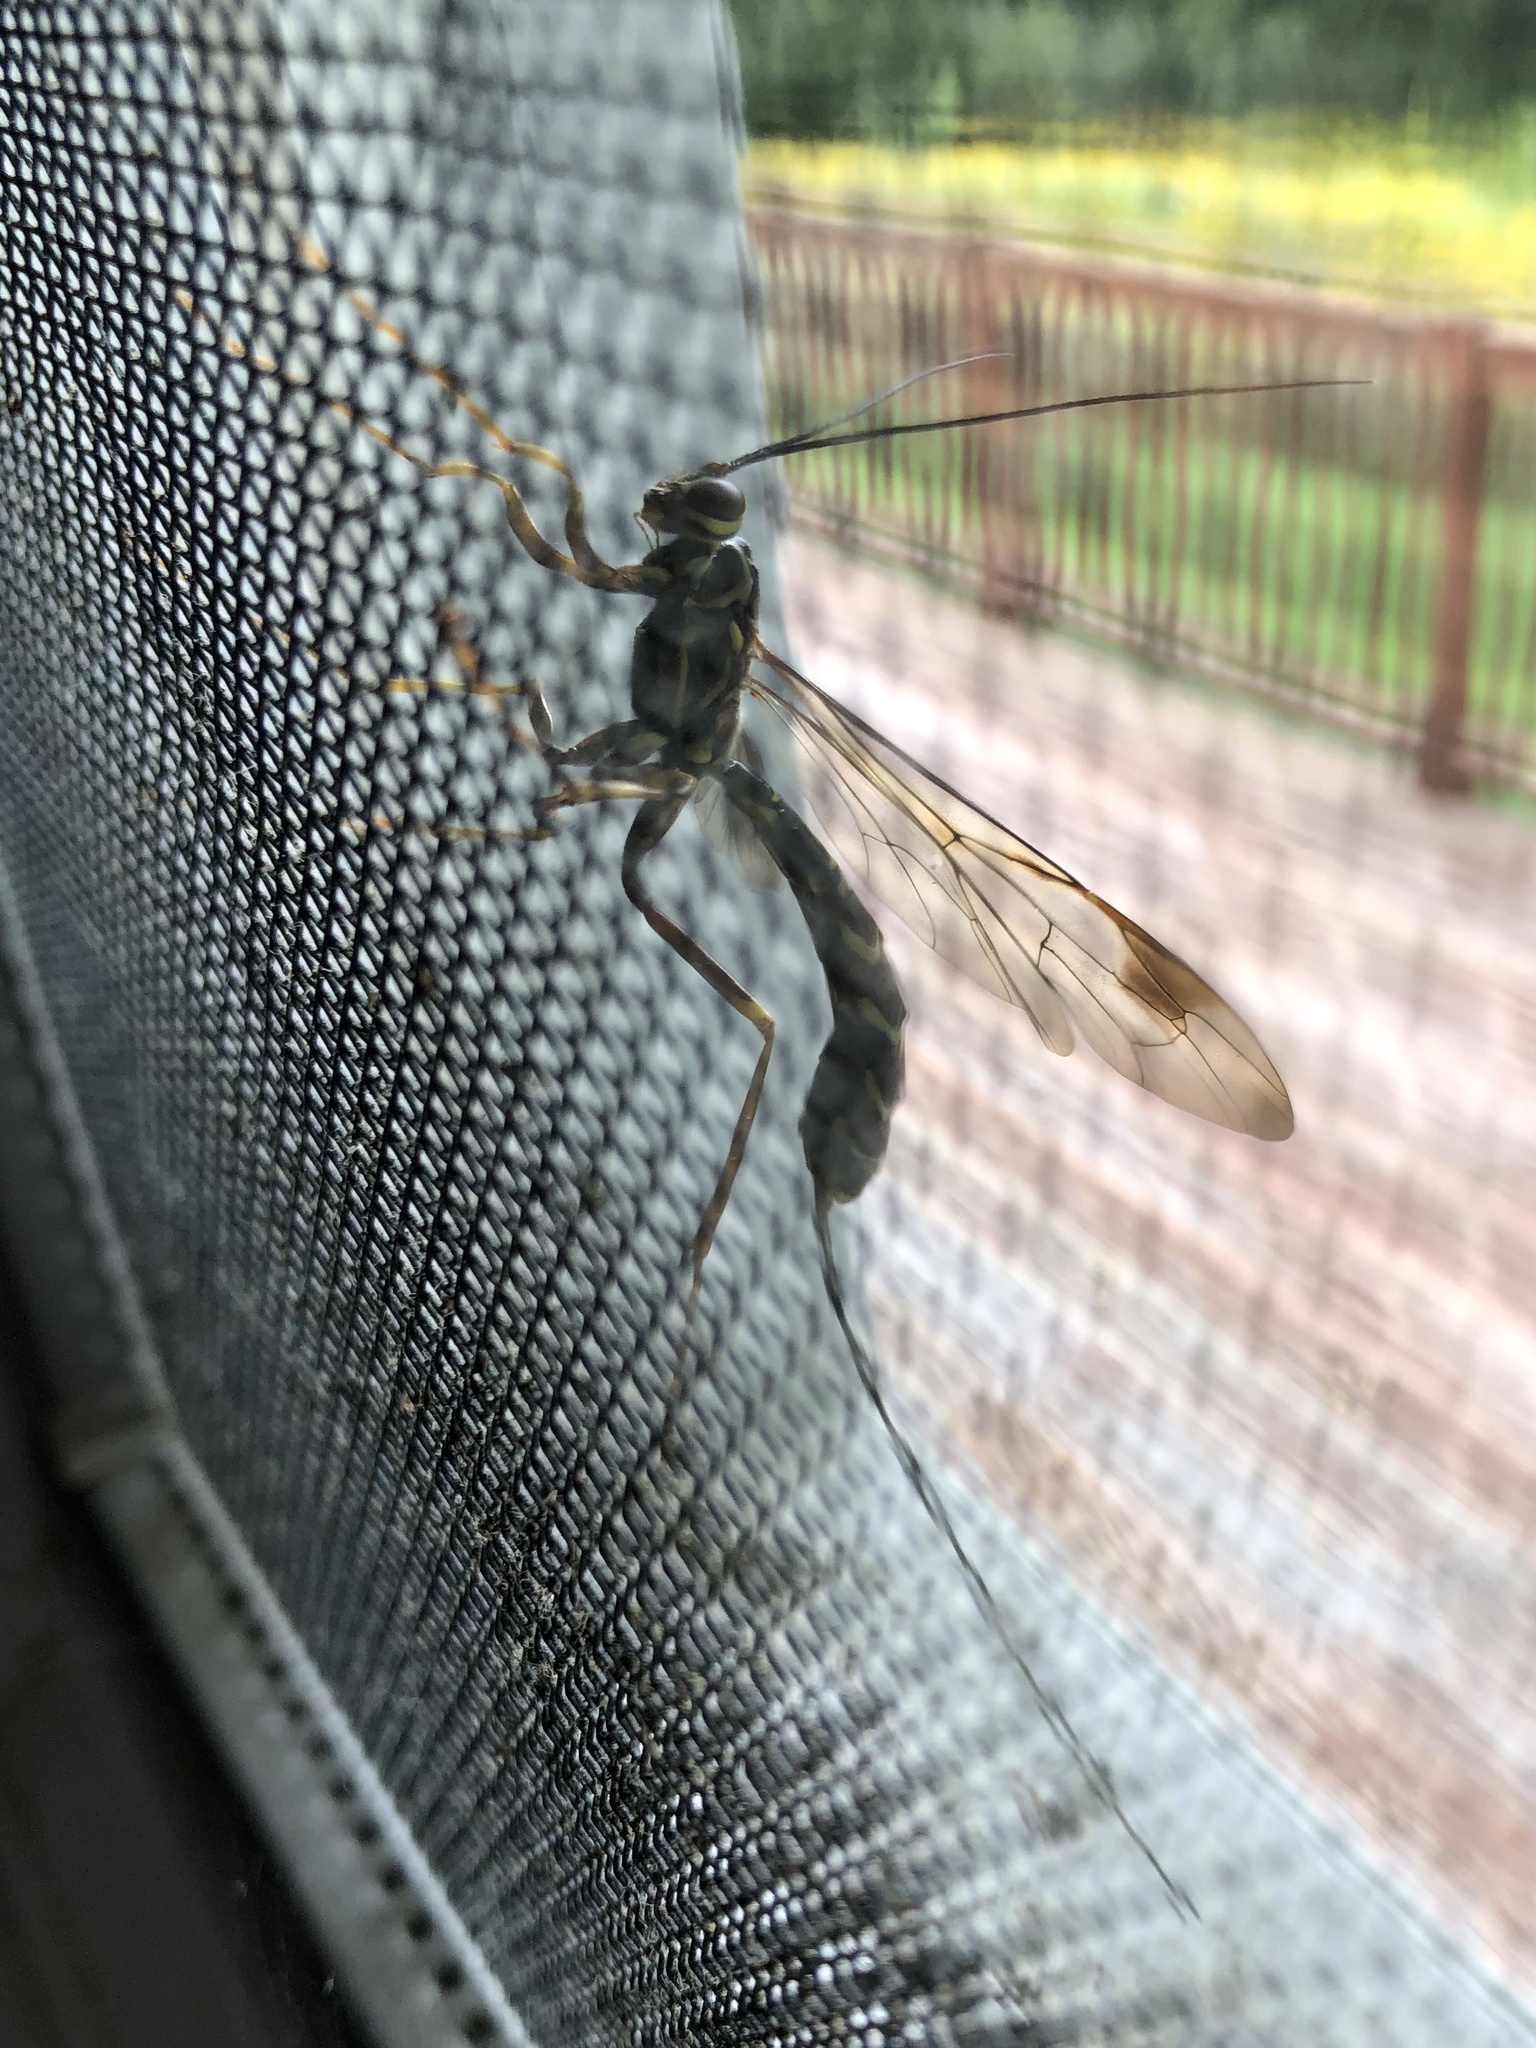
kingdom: Animalia
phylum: Arthropoda
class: Insecta
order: Hymenoptera
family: Ichneumonidae
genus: Megarhyssa
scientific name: Megarhyssa macrura
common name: Long-tailed giant ichneumonid wasp
